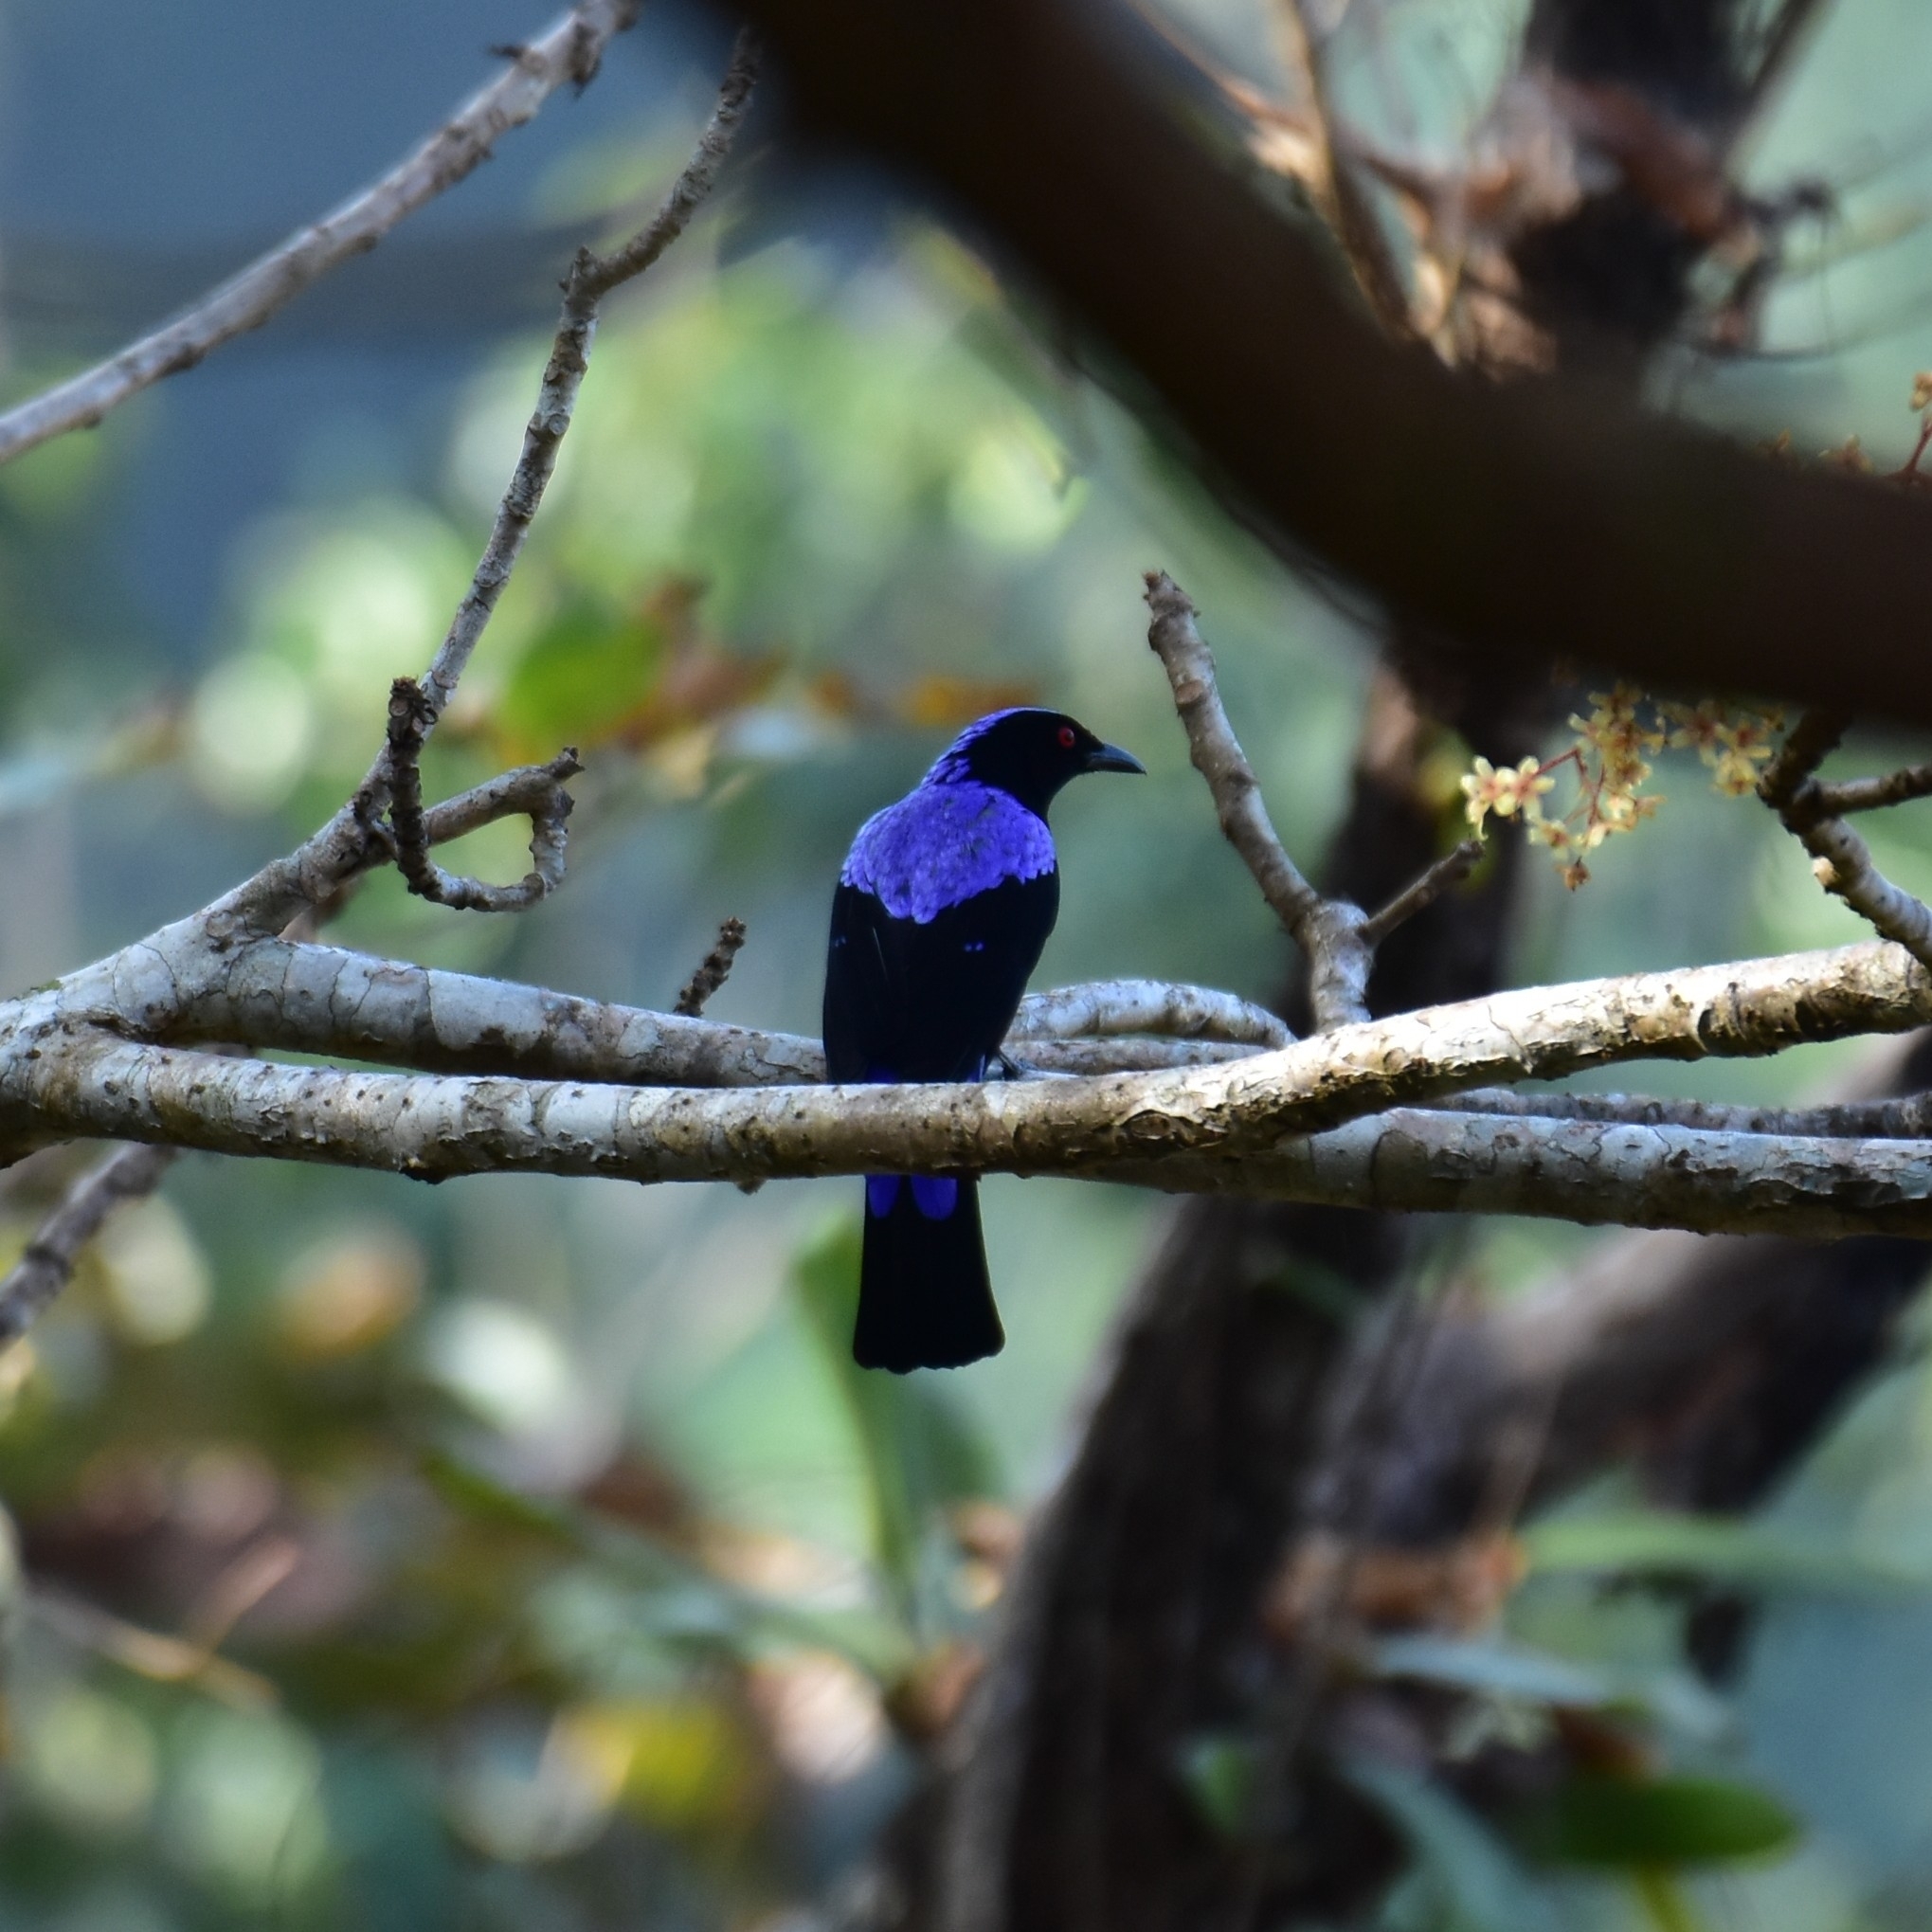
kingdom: Animalia
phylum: Chordata
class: Aves
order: Passeriformes
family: Irenidae
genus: Irena
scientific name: Irena puella
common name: Asian fairy-bluebird
